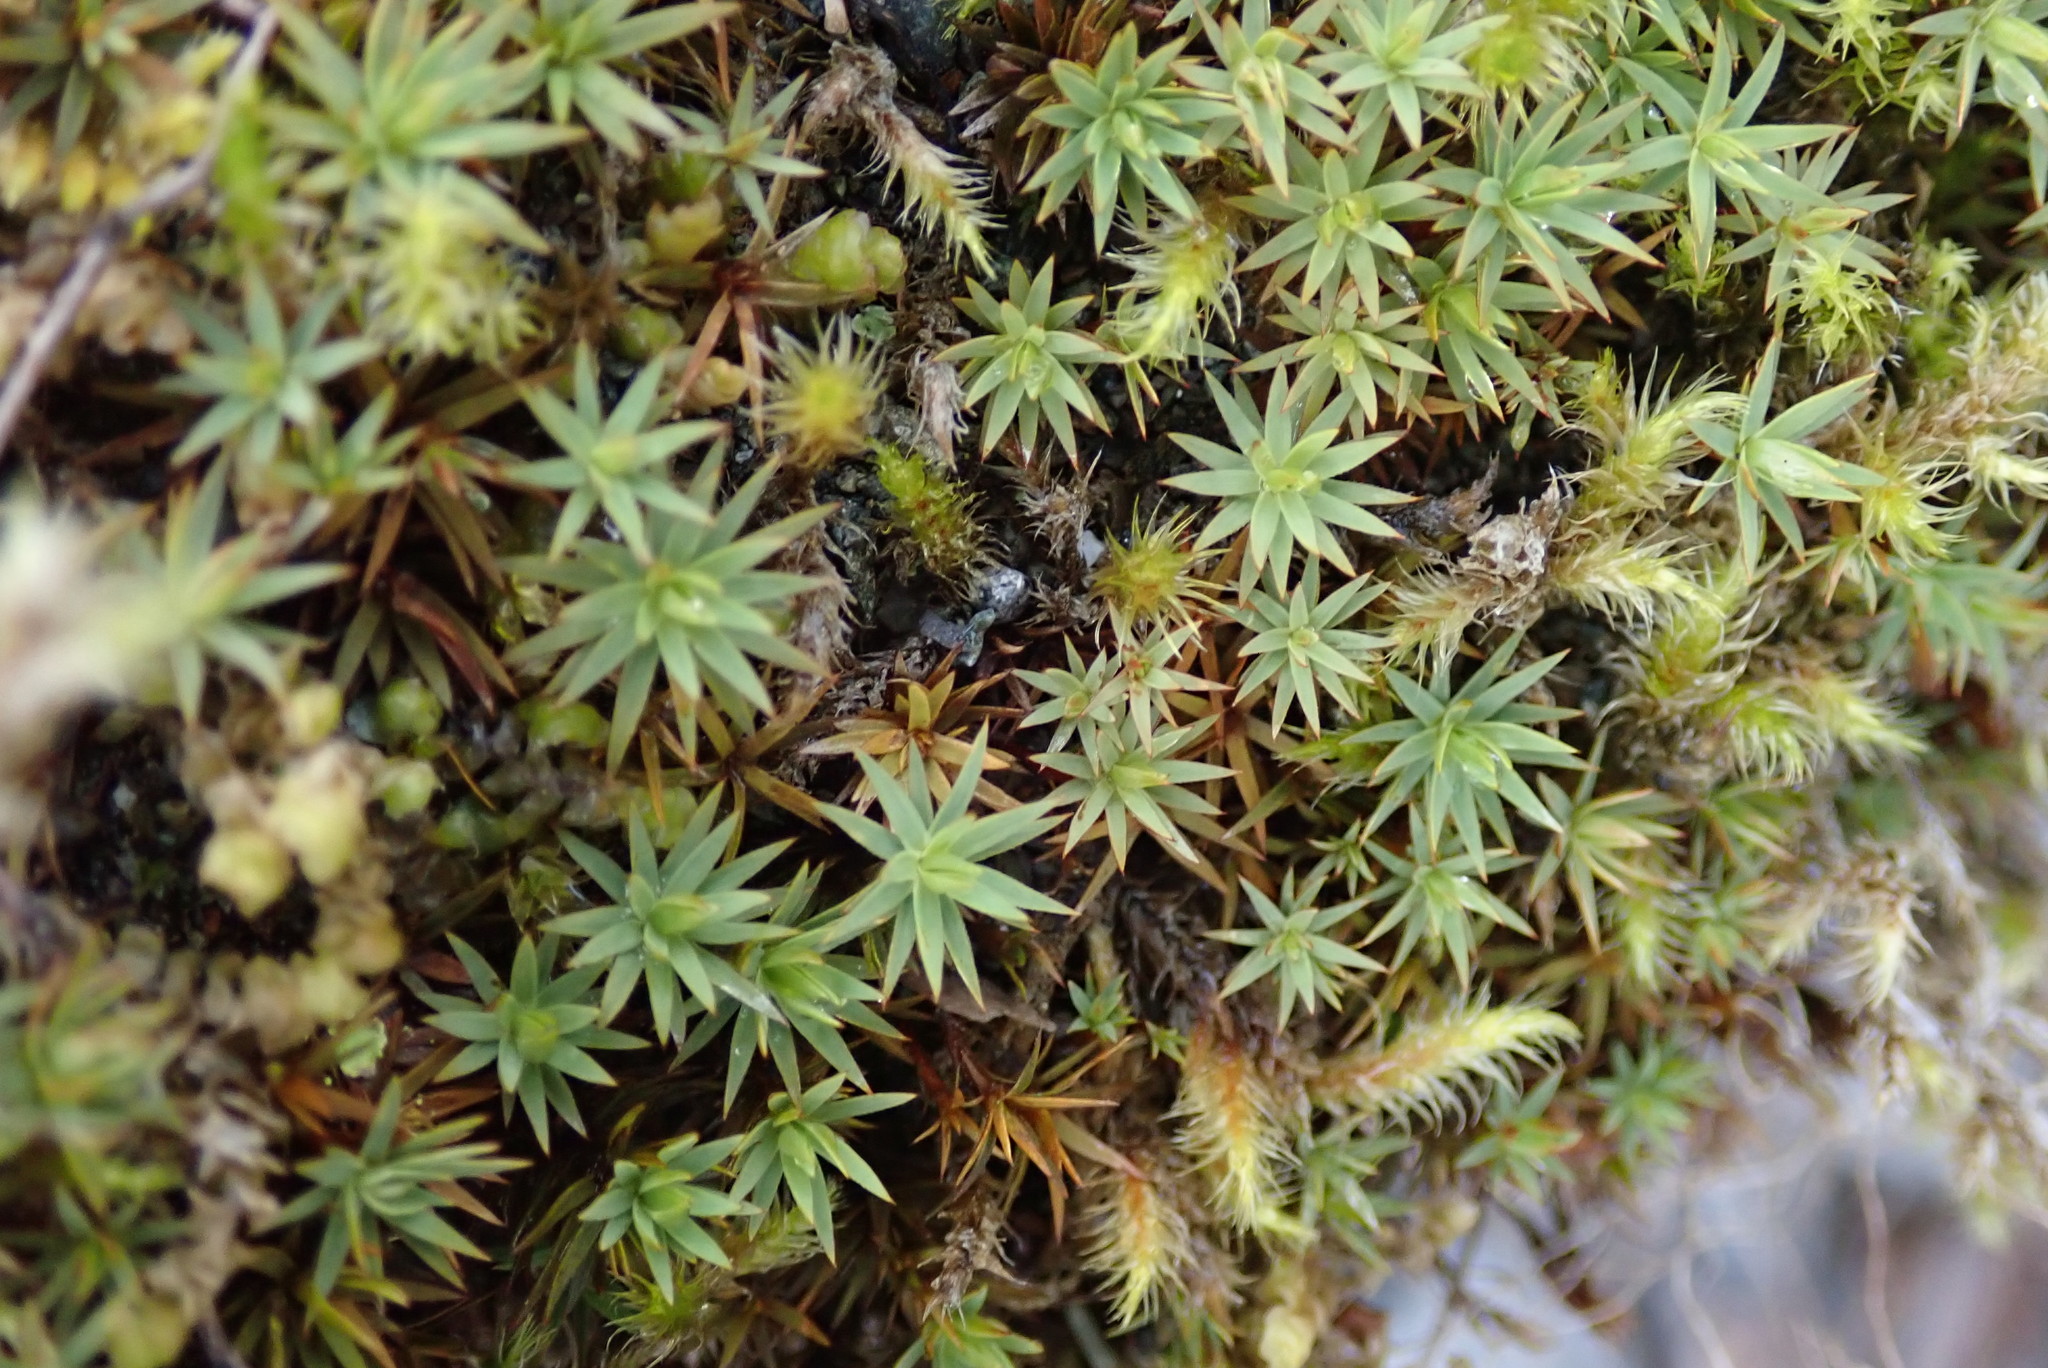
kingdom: Plantae
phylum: Bryophyta
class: Polytrichopsida
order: Polytrichales
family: Polytrichaceae
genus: Pogonatum
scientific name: Pogonatum urnigerum
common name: Urn hair moss
